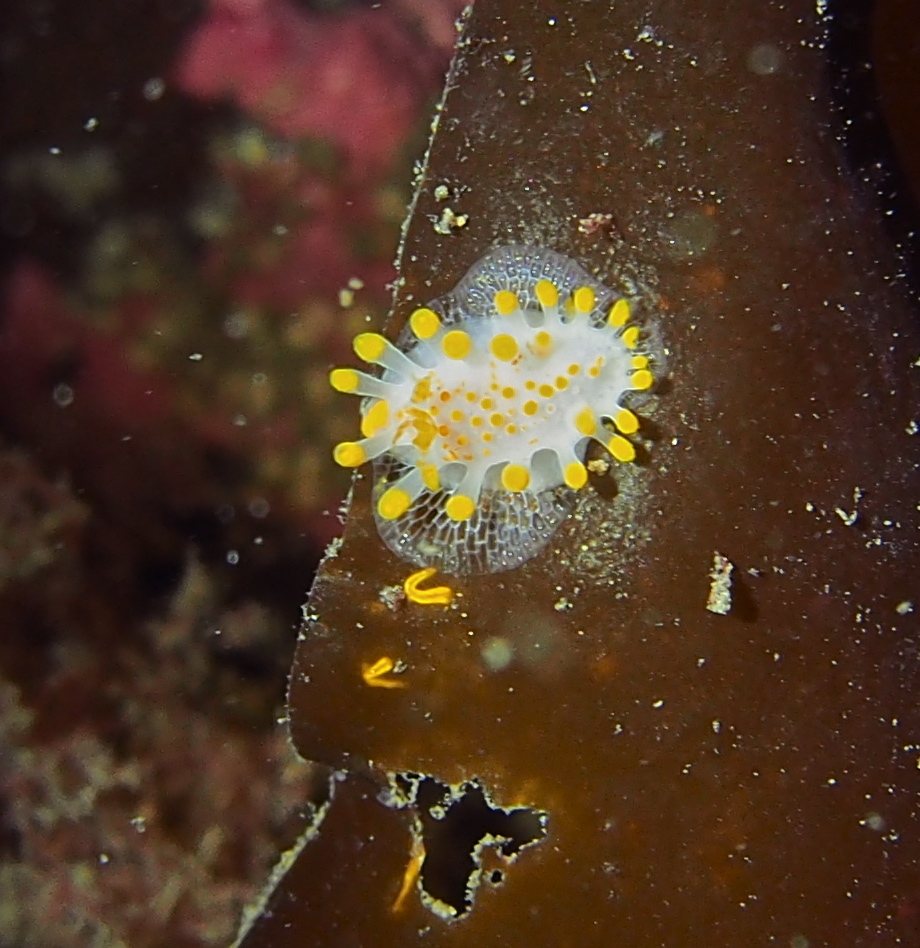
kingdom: Animalia
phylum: Mollusca
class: Gastropoda
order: Nudibranchia
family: Polyceridae
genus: Limacia
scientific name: Limacia clavigera
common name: Orange-clubbed sea slug
